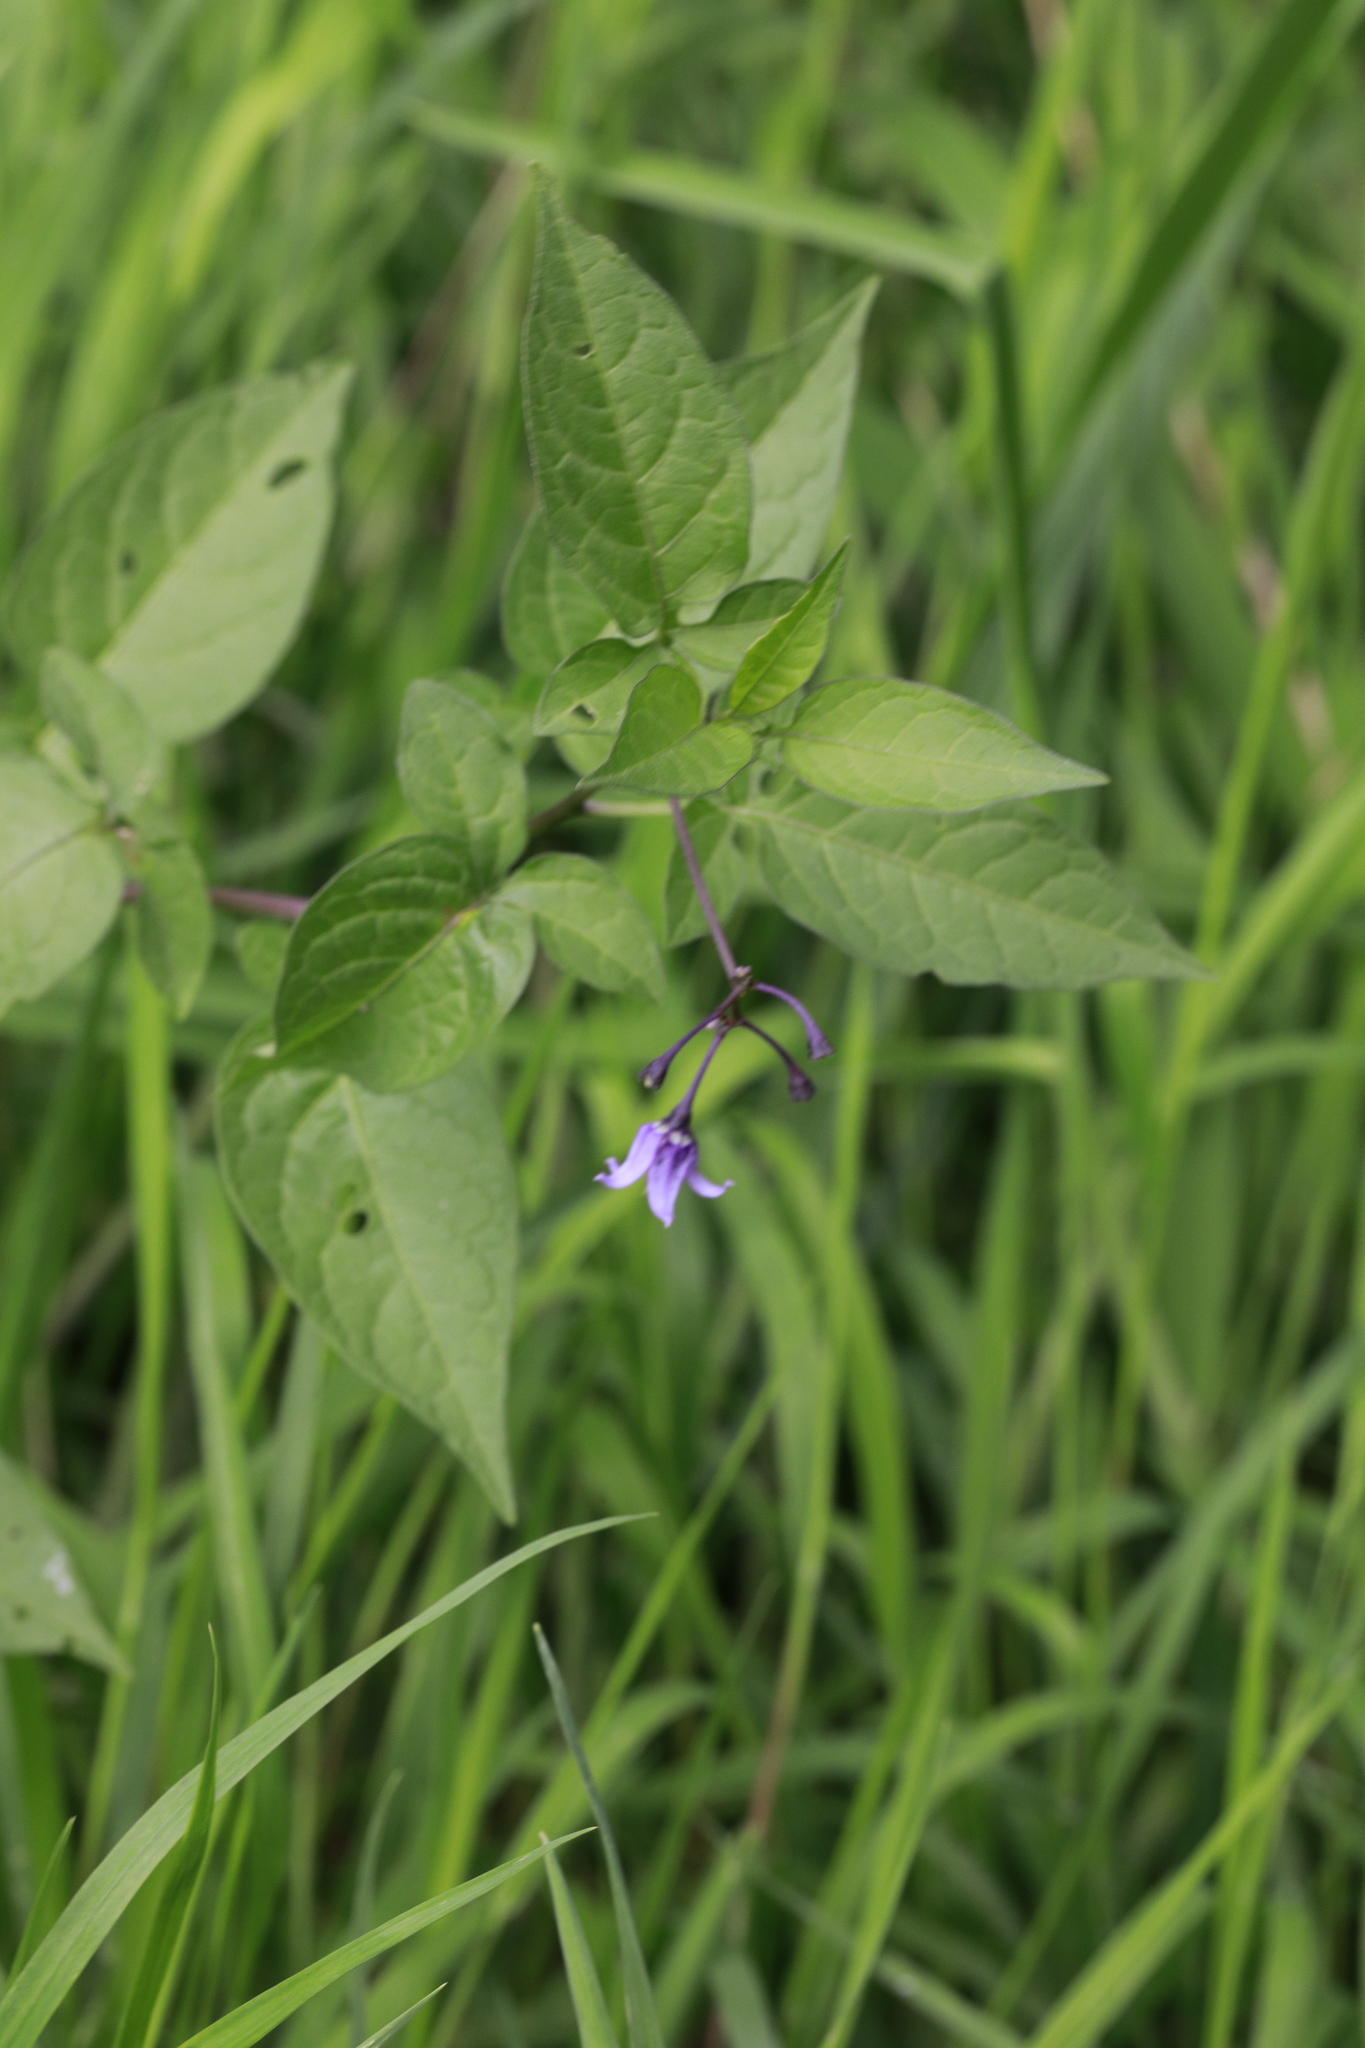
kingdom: Plantae
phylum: Tracheophyta
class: Magnoliopsida
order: Solanales
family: Solanaceae
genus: Solanum
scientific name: Solanum dulcamara
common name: Climbing nightshade
